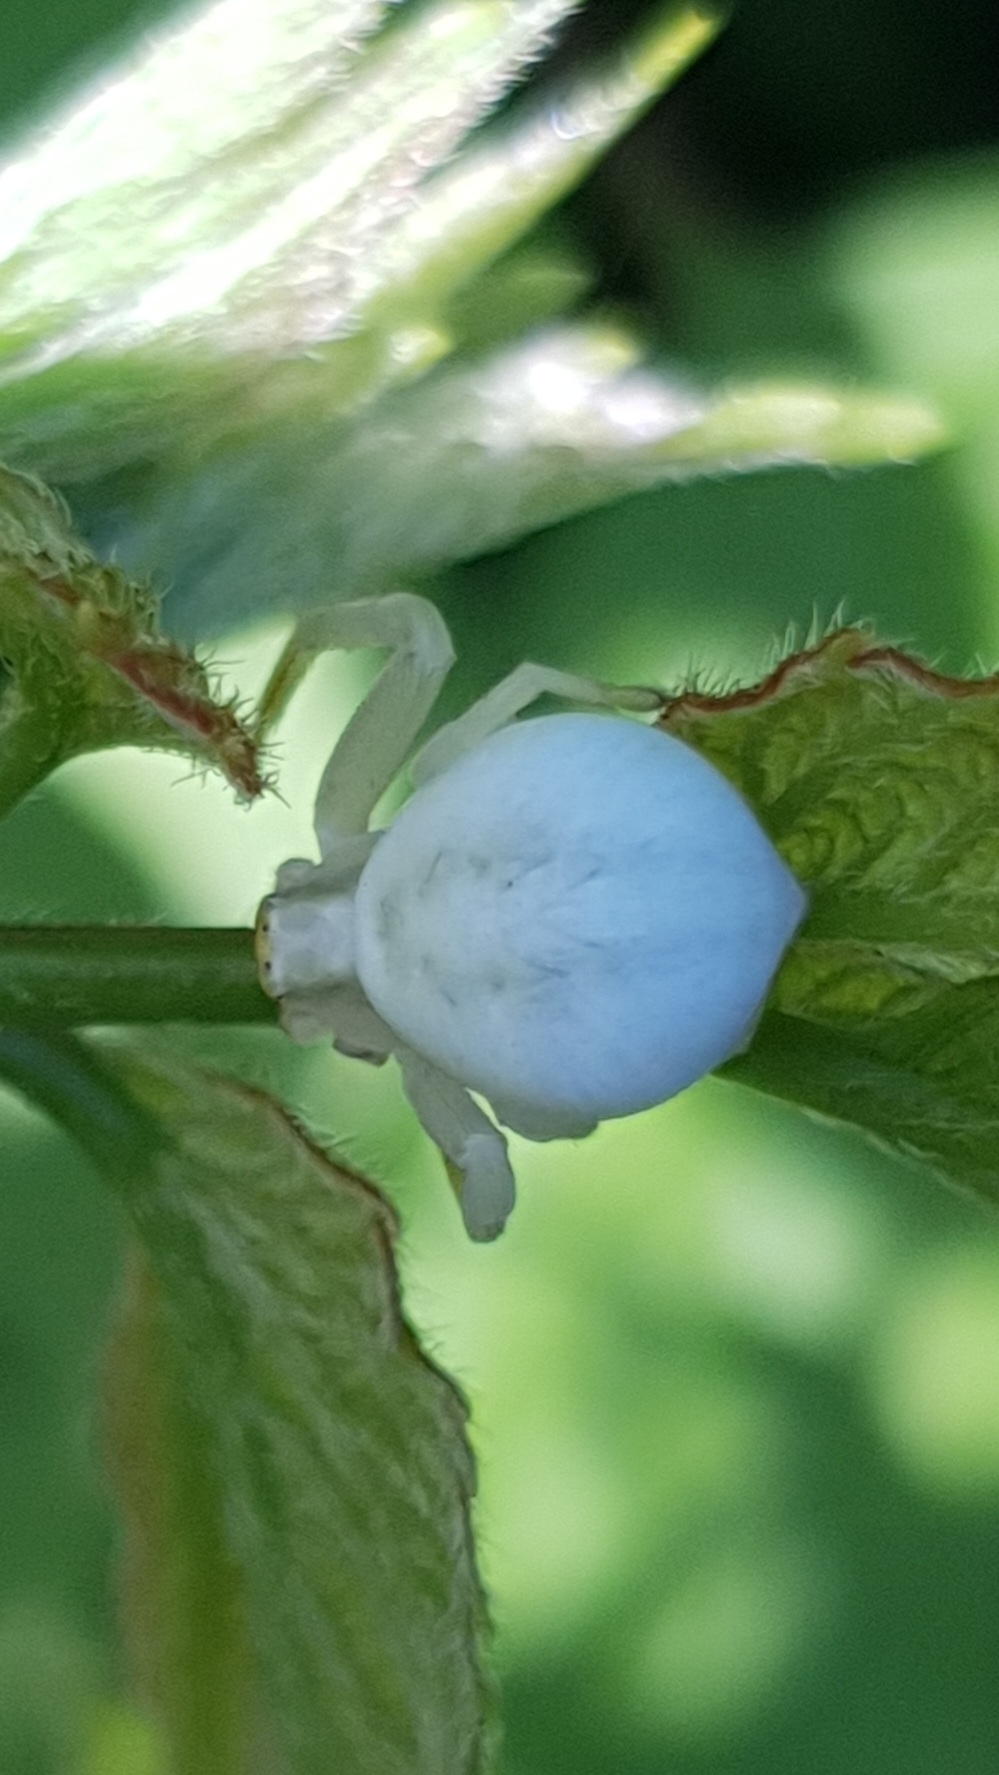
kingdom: Animalia
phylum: Arthropoda
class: Arachnida
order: Araneae
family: Thomisidae
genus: Misumena
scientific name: Misumena vatia
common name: Goldenrod crab spider
